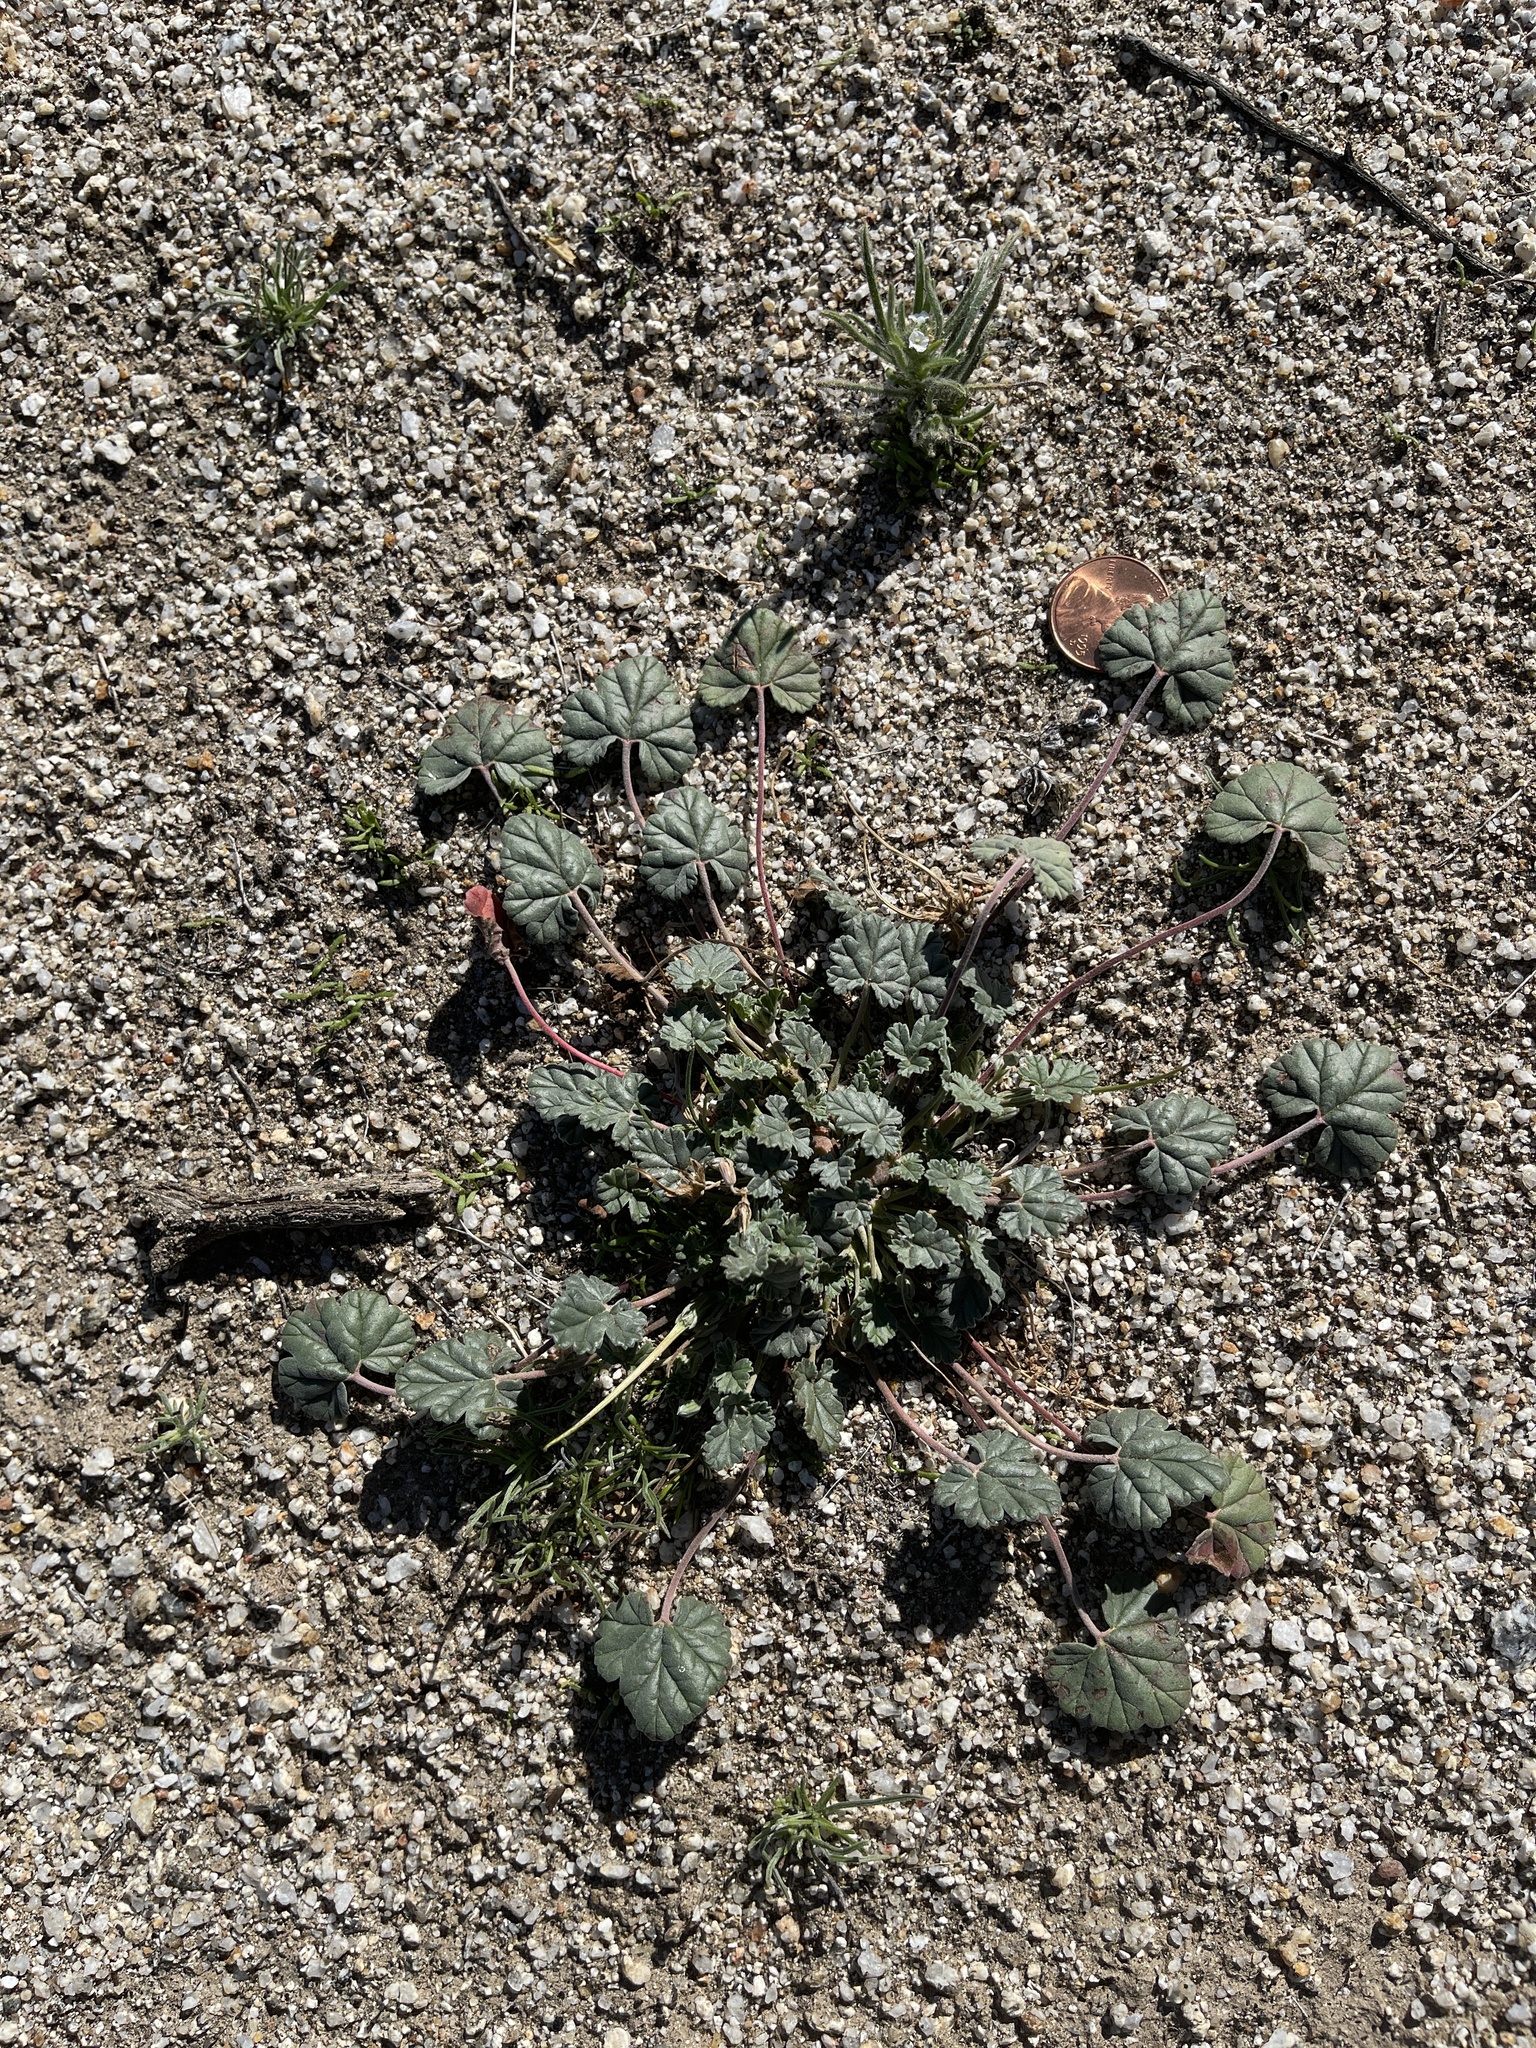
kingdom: Plantae
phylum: Tracheophyta
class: Magnoliopsida
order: Geraniales
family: Geraniaceae
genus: Erodium
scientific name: Erodium texanum
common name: Texas stork's-bill
